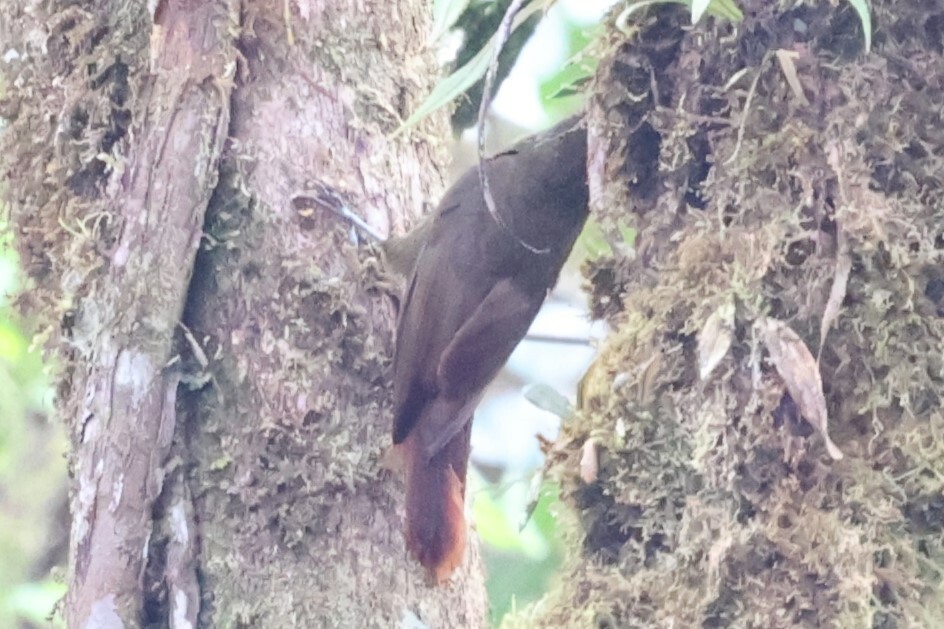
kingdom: Animalia
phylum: Chordata
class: Aves
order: Passeriformes
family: Furnariidae
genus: Xiphorhynchus
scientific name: Xiphorhynchus triangularis
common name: Olive-backed woodcreeper
